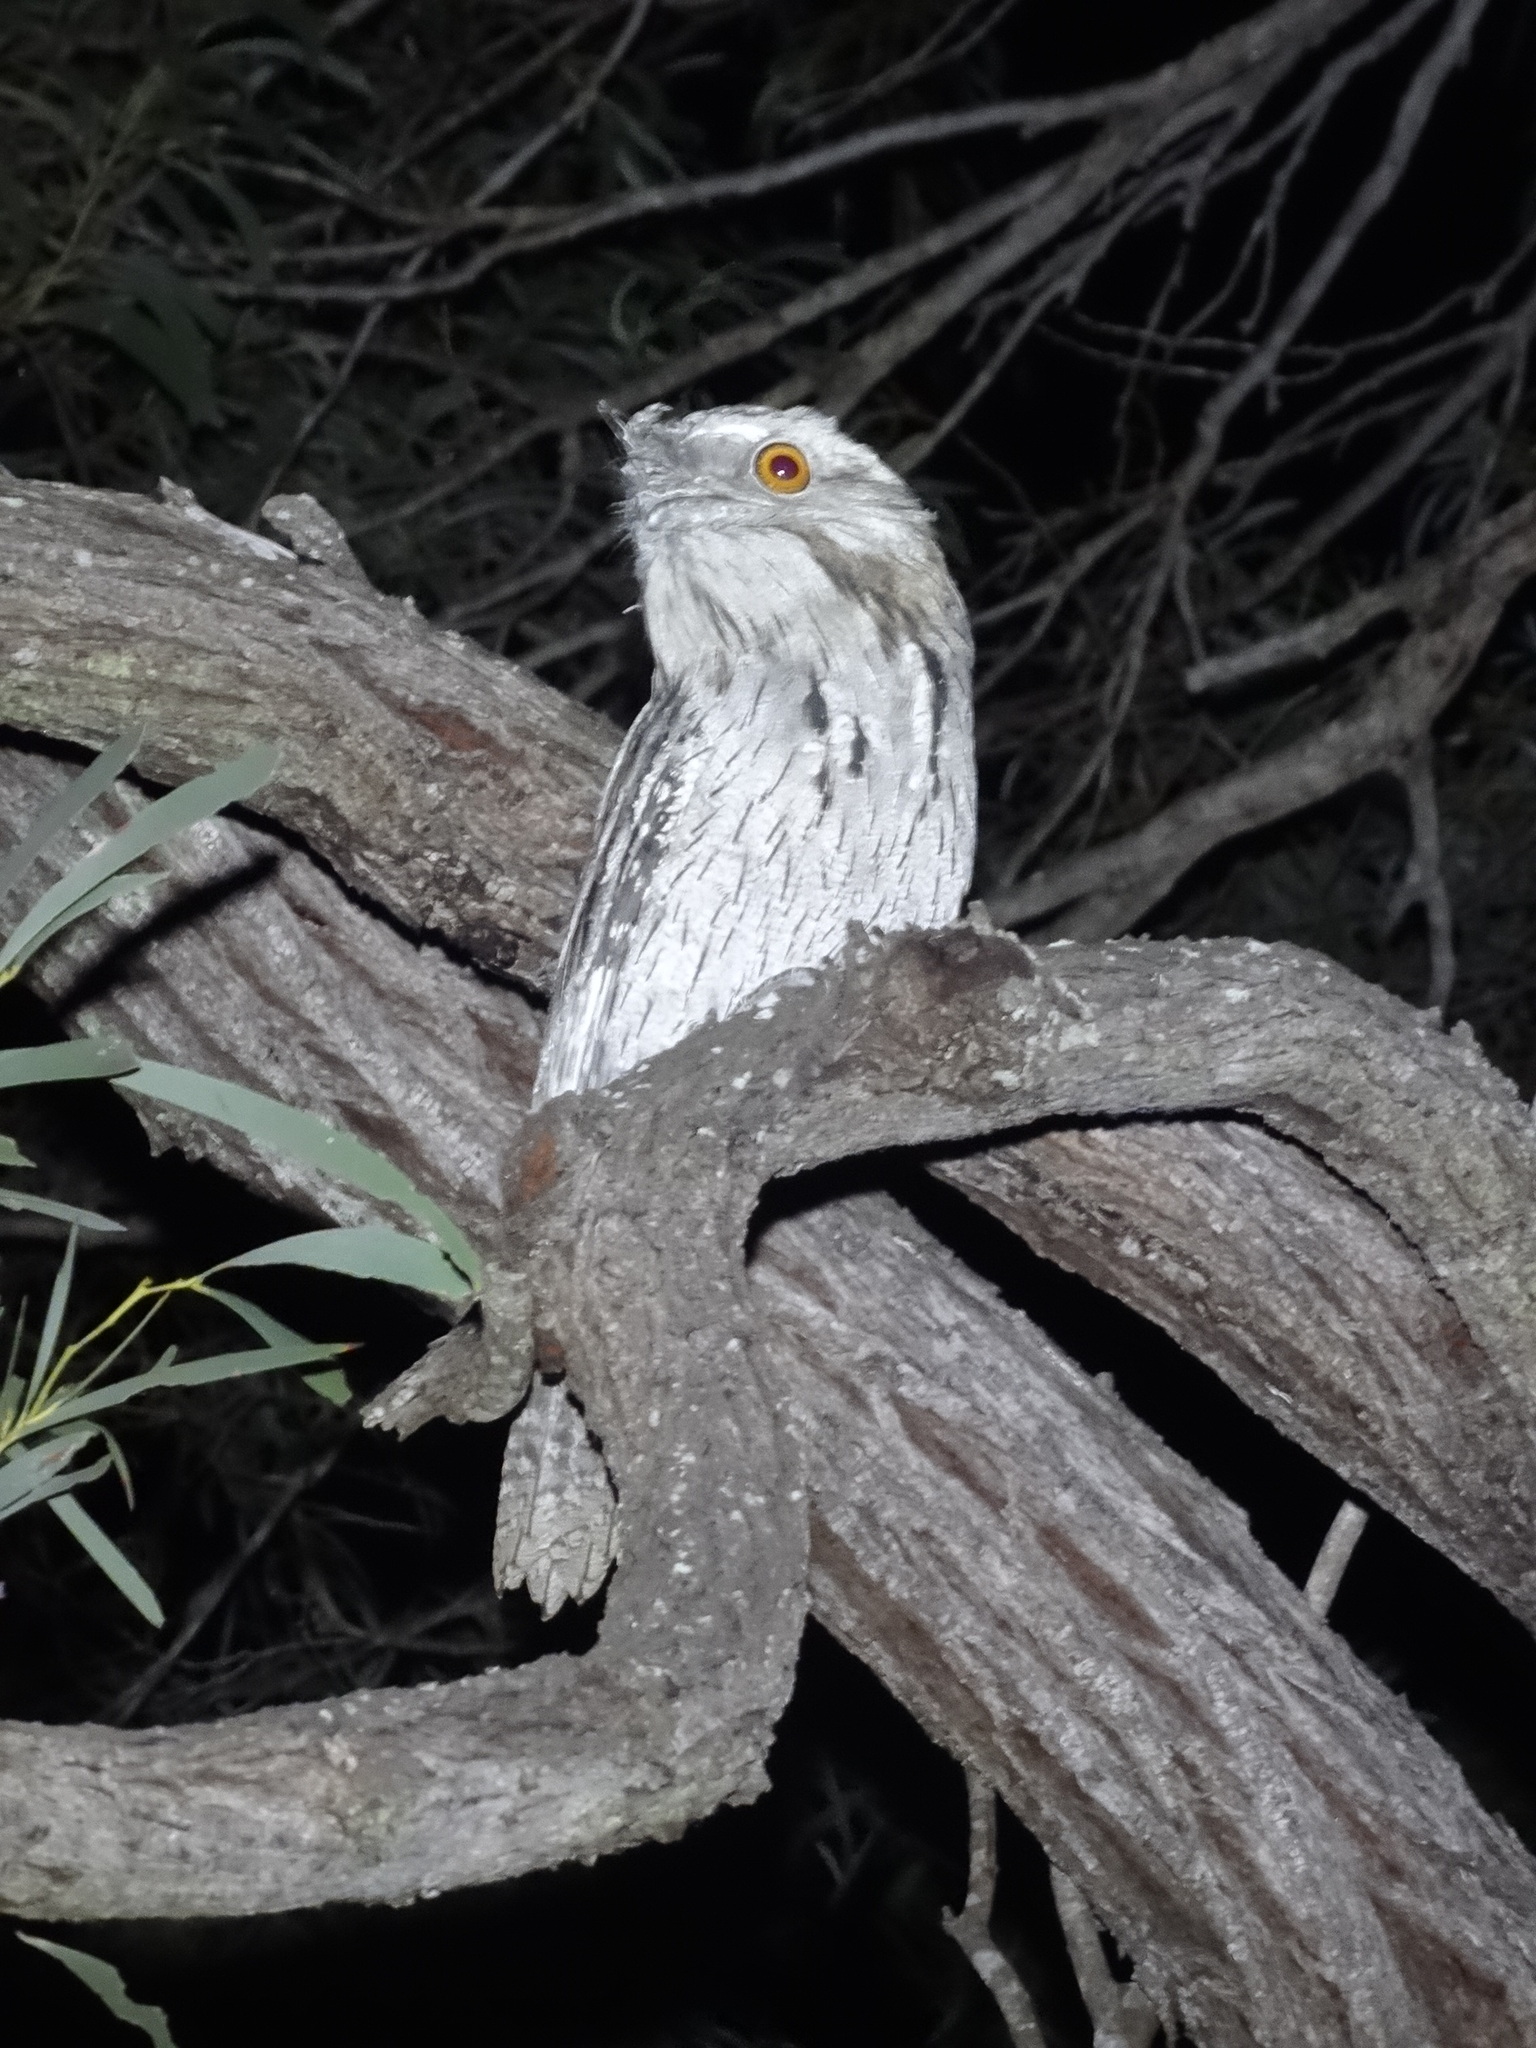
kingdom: Animalia
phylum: Chordata
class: Aves
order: Caprimulgiformes
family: Podargidae
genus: Podargus
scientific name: Podargus strigoides
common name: Tawny frogmouth
